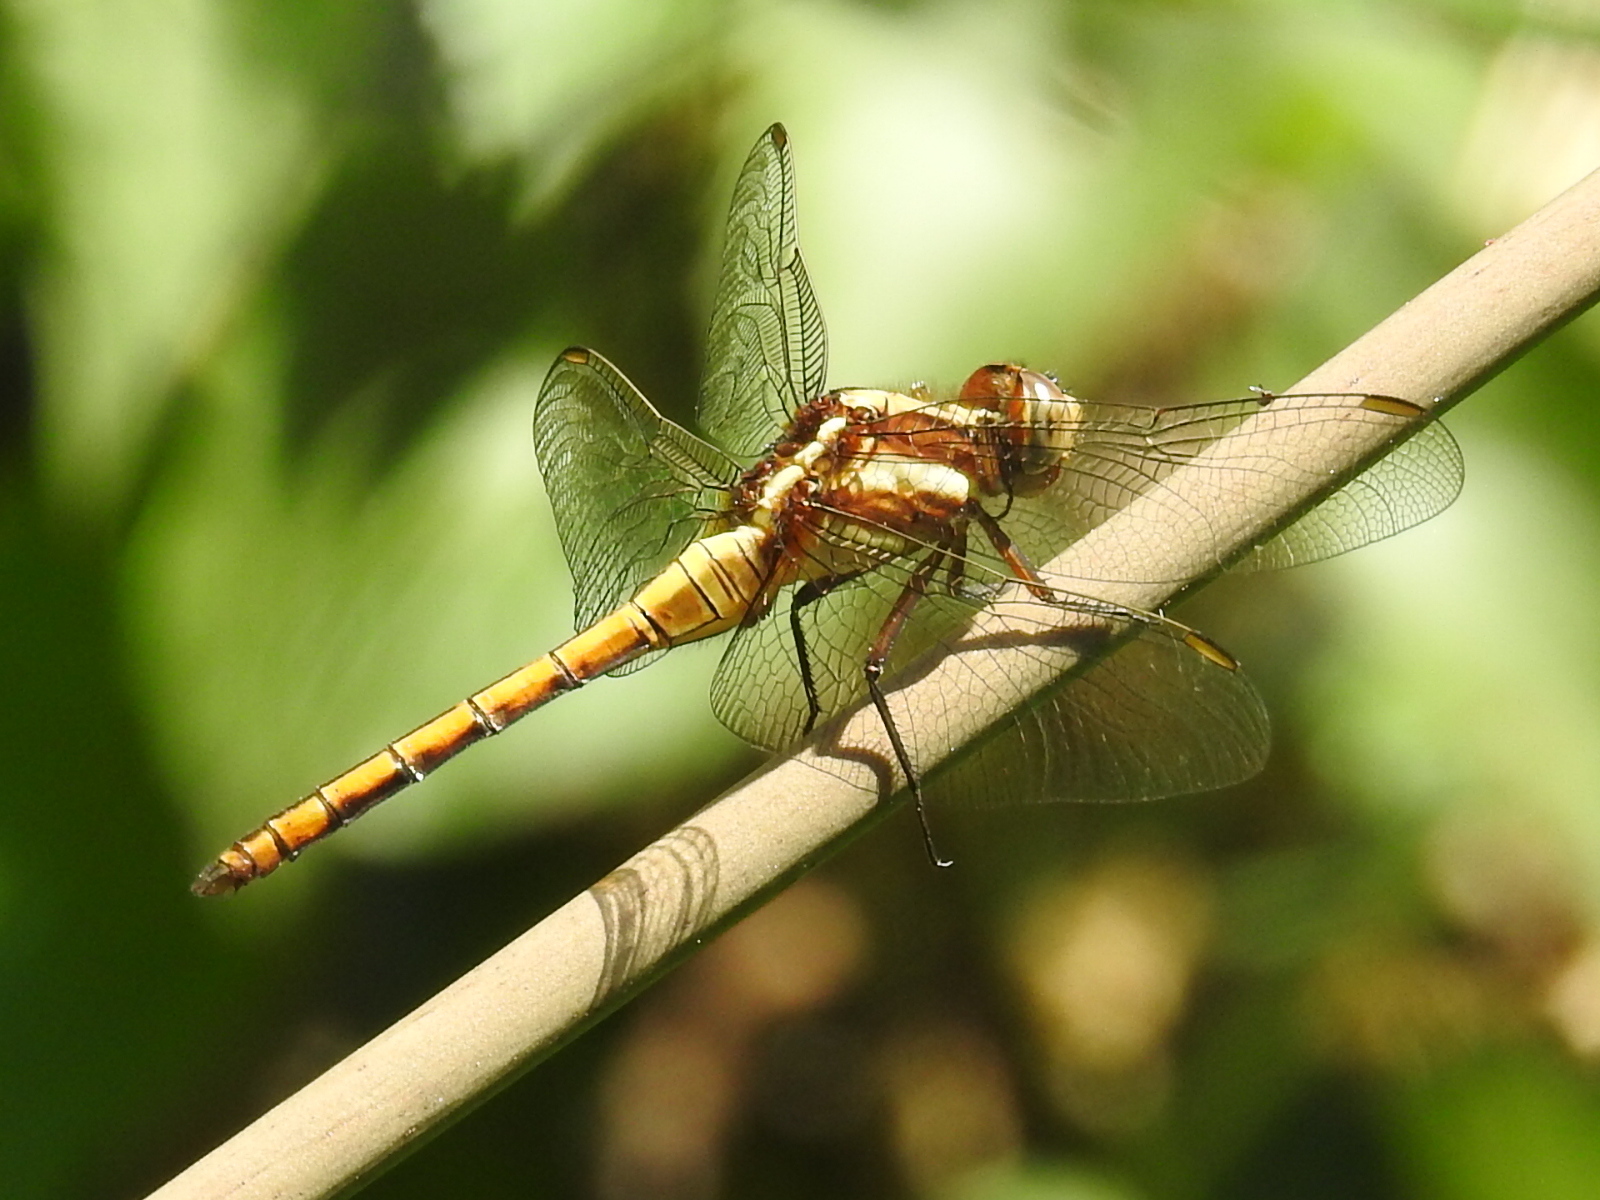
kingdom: Animalia
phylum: Arthropoda
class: Insecta
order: Odonata
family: Libellulidae
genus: Orthetrum
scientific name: Orthetrum glaucum
